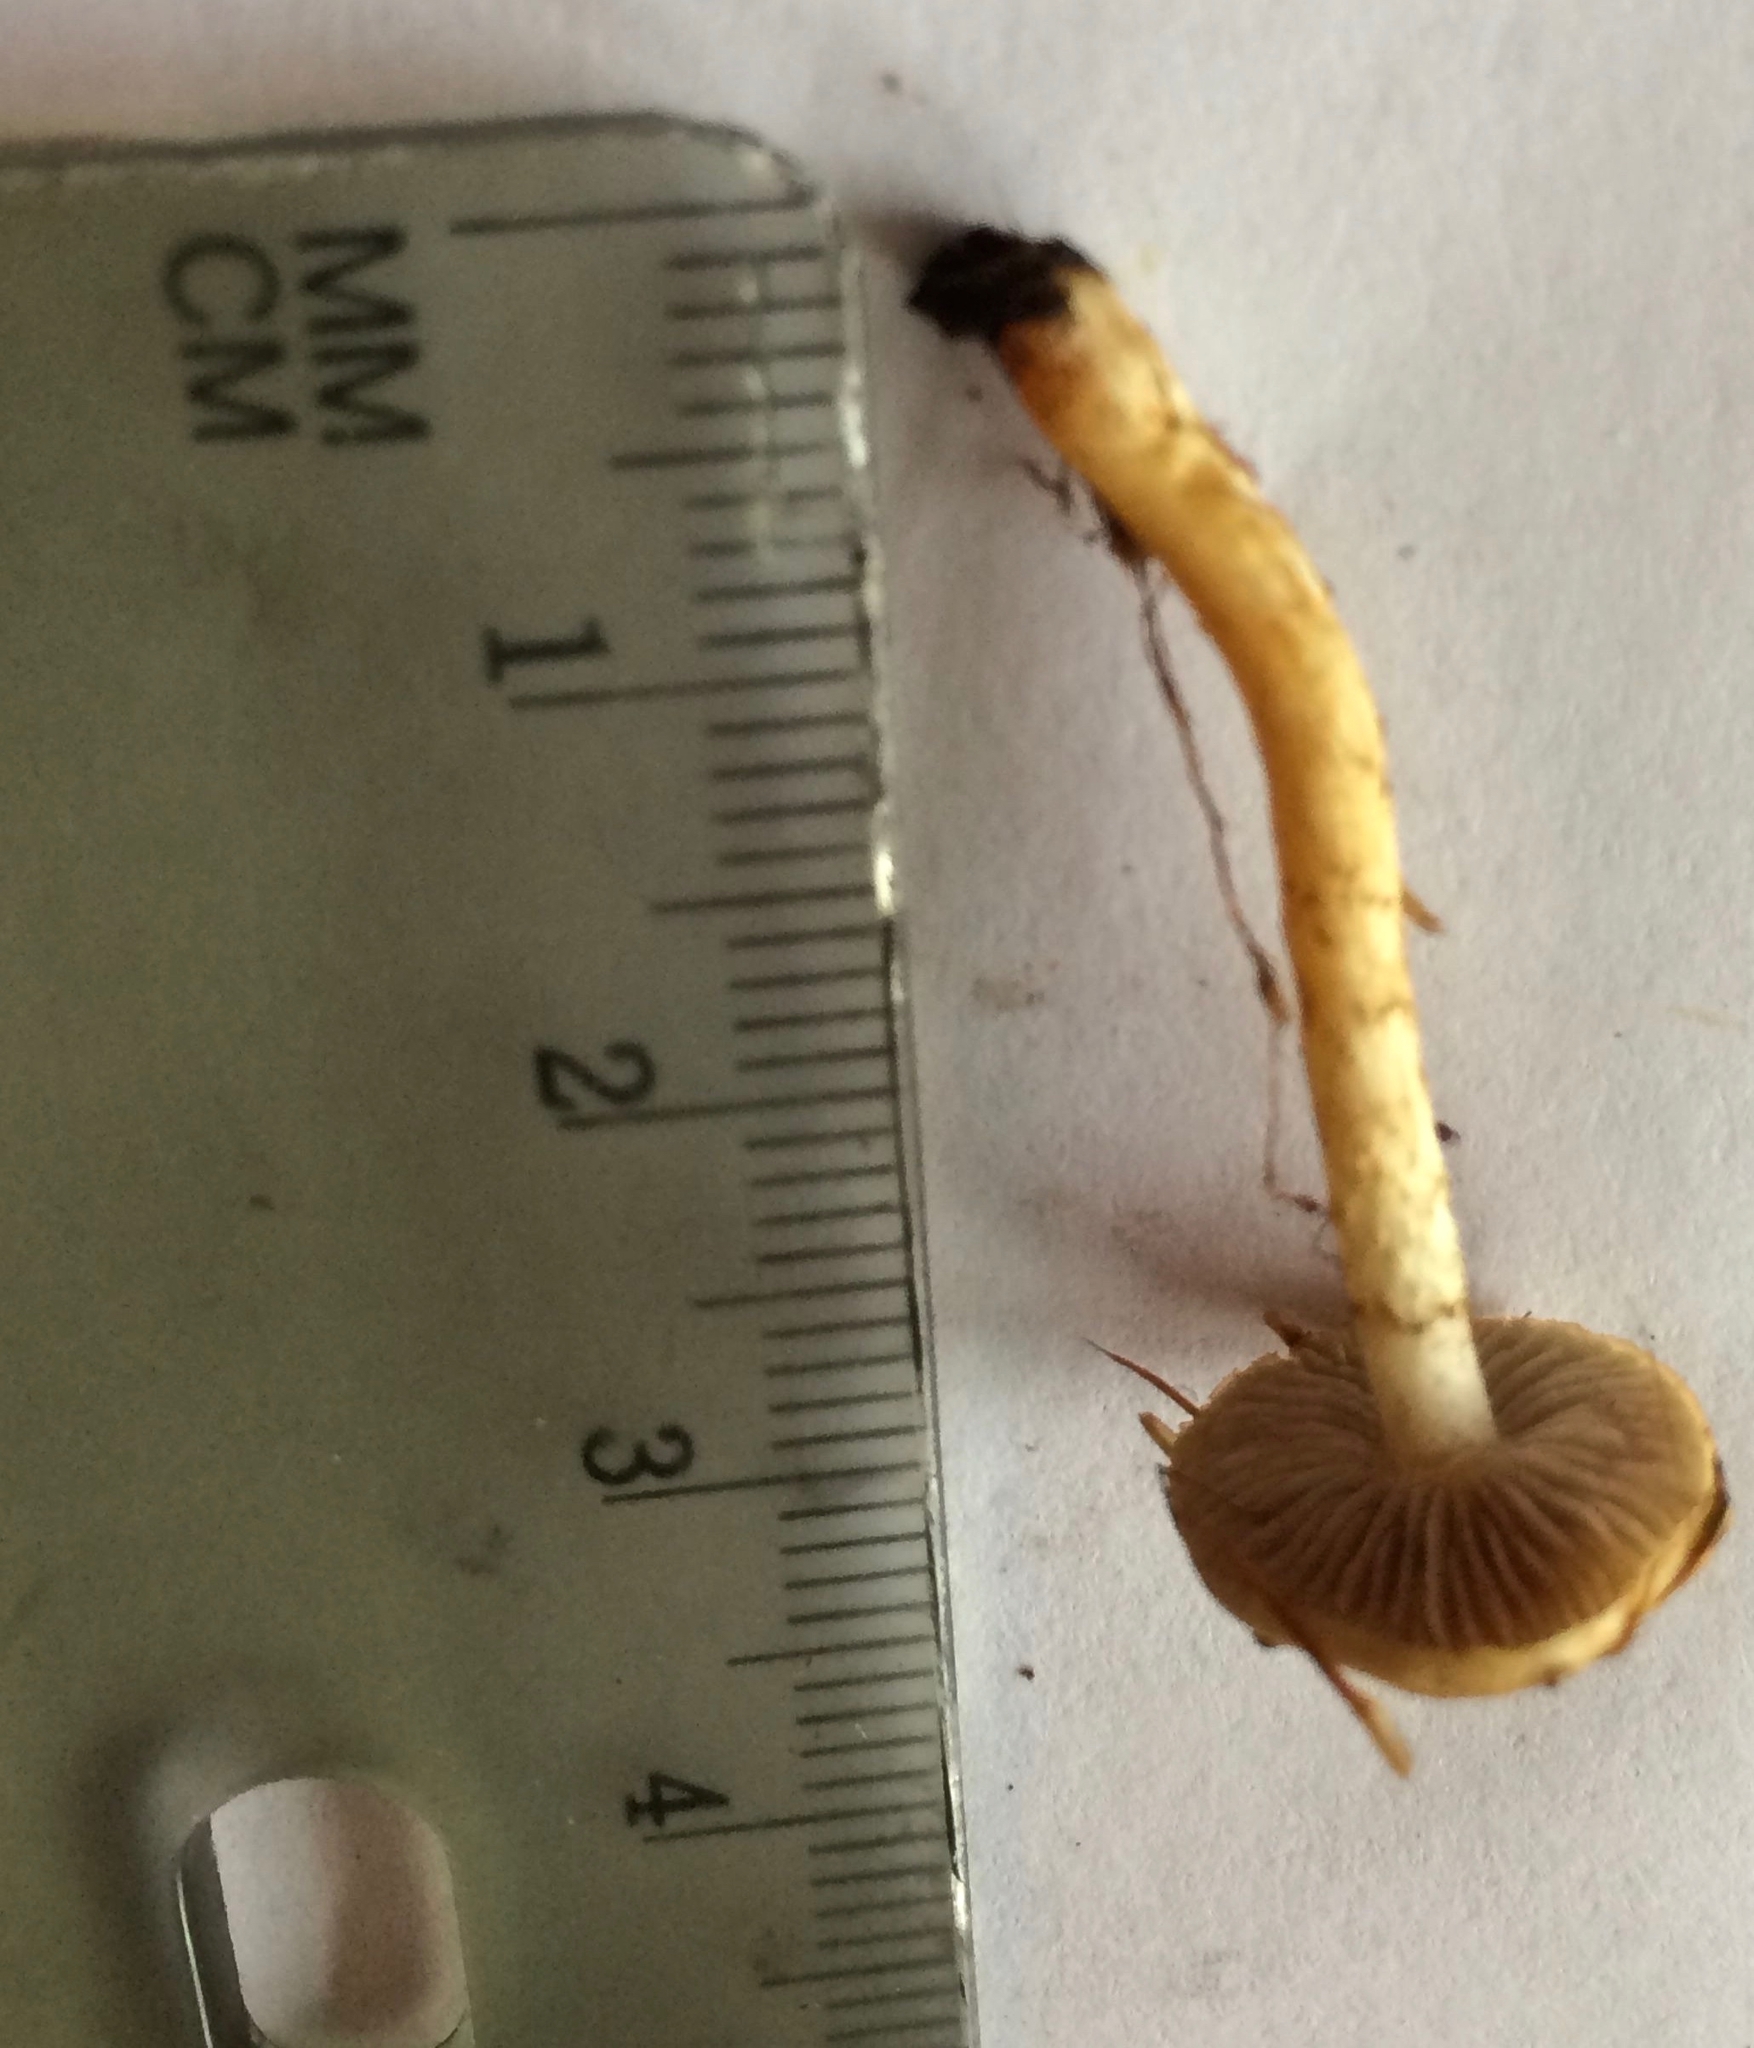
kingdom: Fungi
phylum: Basidiomycota
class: Agaricomycetes
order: Agaricales
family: Strophariaceae
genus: Pholiota
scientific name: Pholiota brunnescens
